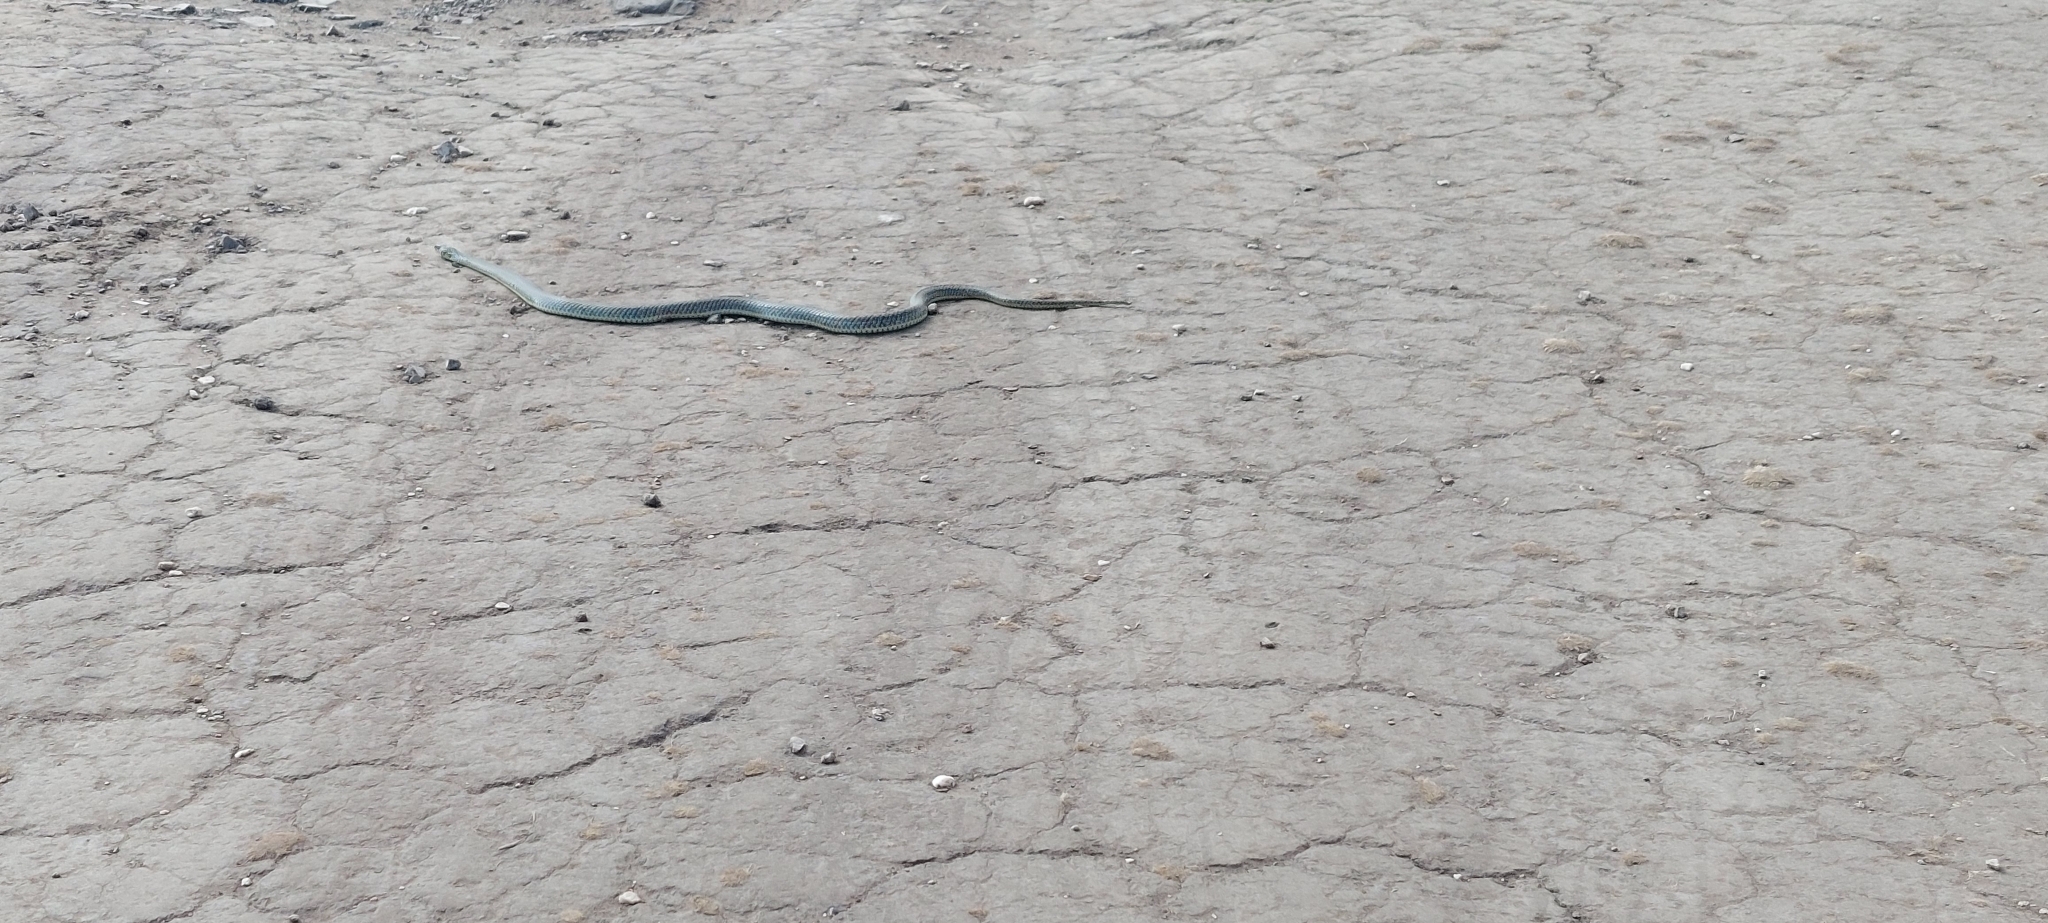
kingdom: Animalia
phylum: Chordata
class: Squamata
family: Colubridae
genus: Philodryas
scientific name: Philodryas patagoniensis
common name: Patagonia green racer
